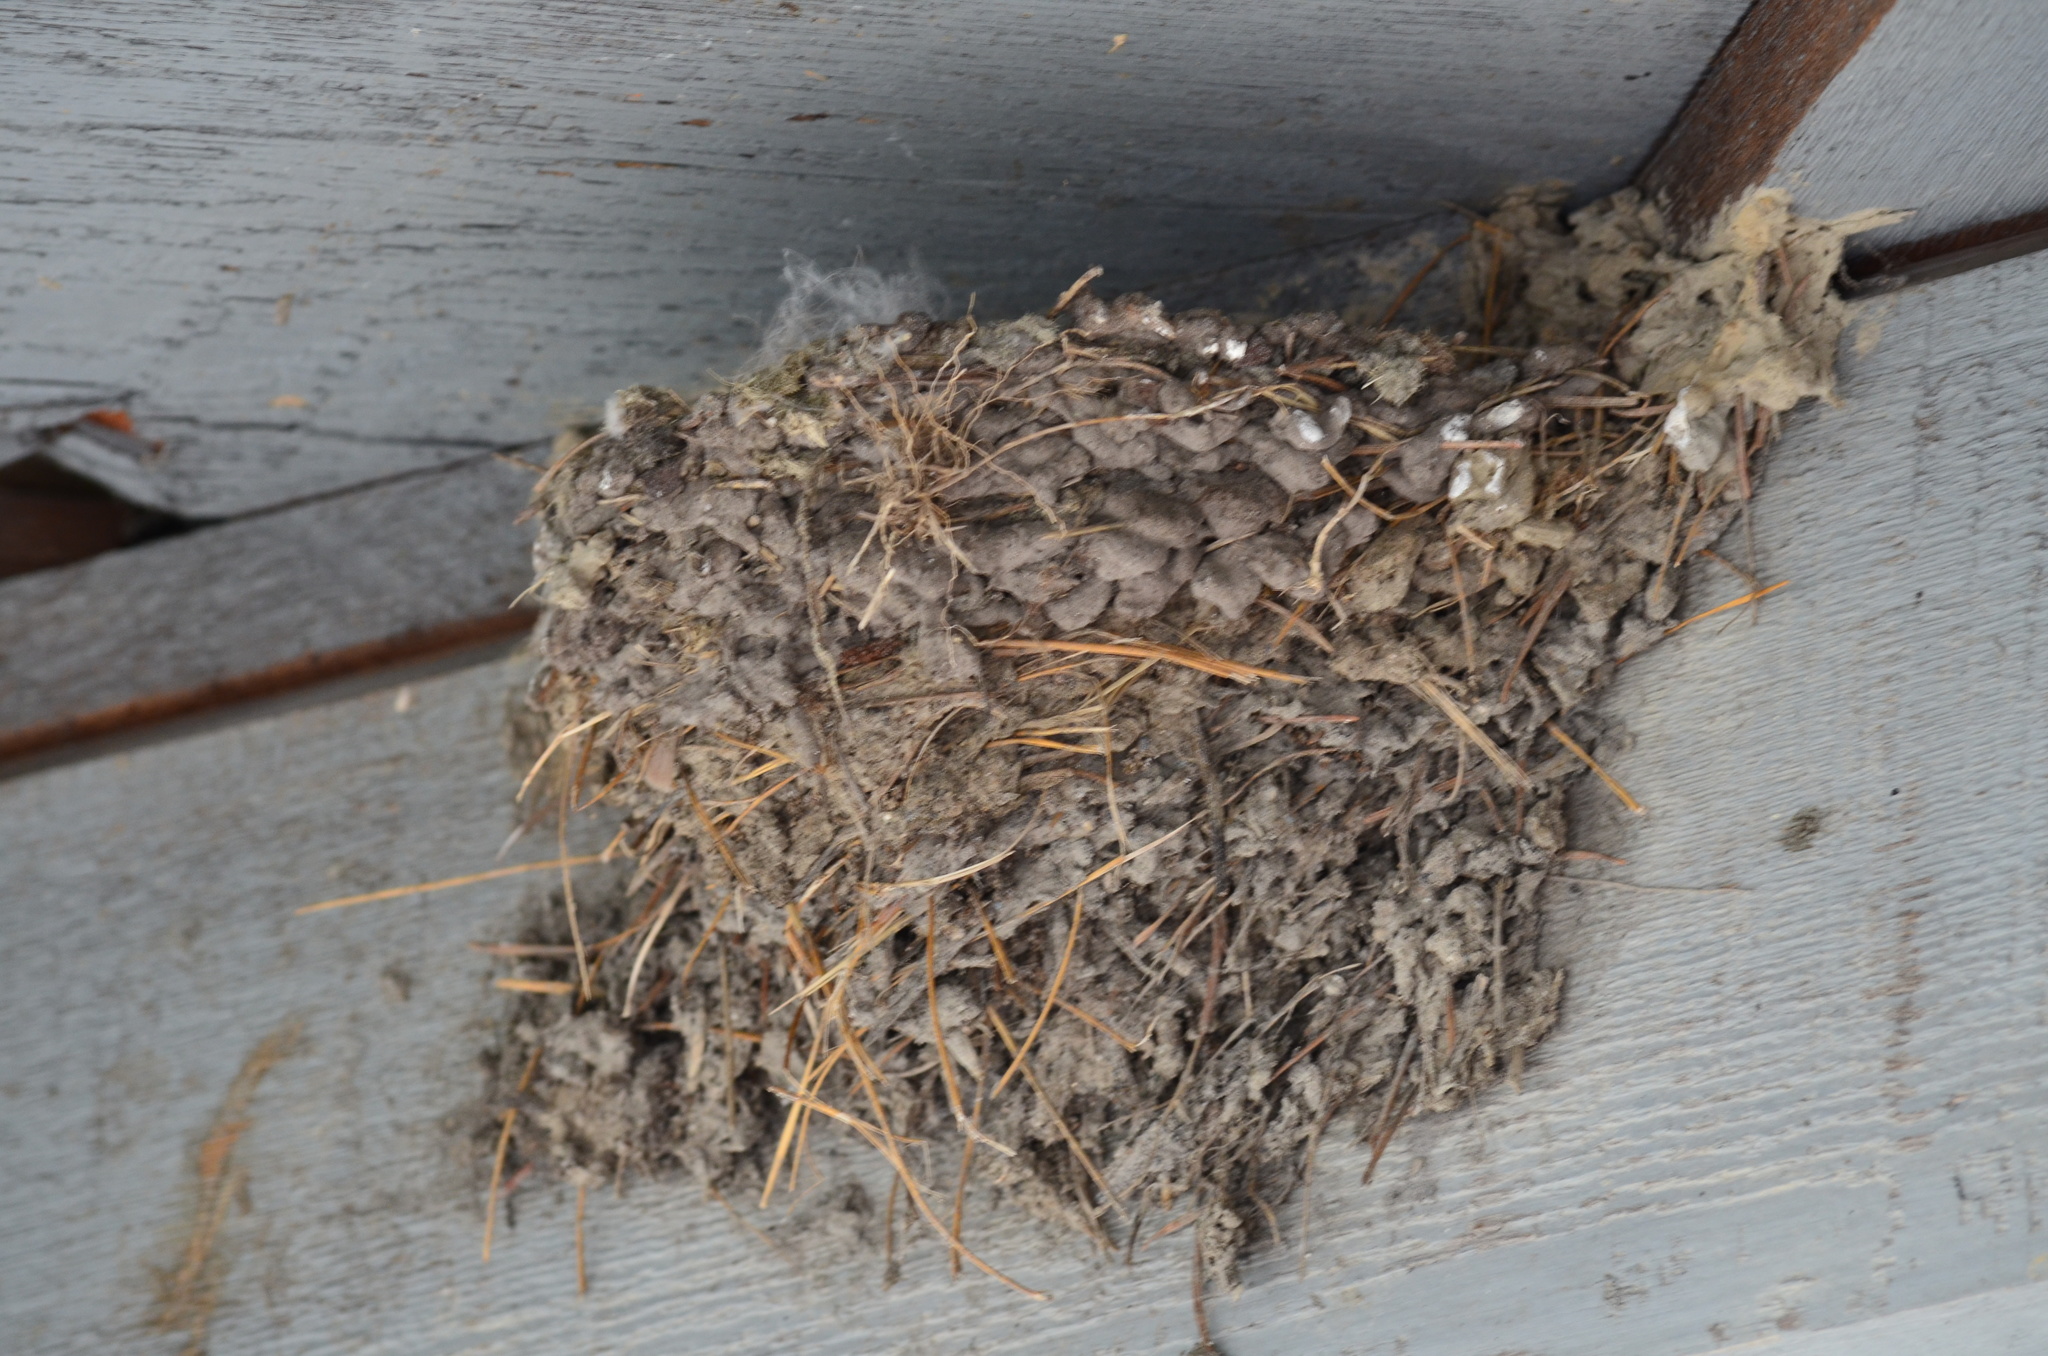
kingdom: Animalia
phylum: Chordata
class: Aves
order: Passeriformes
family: Hirundinidae
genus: Hirundo
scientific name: Hirundo rustica
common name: Barn swallow
